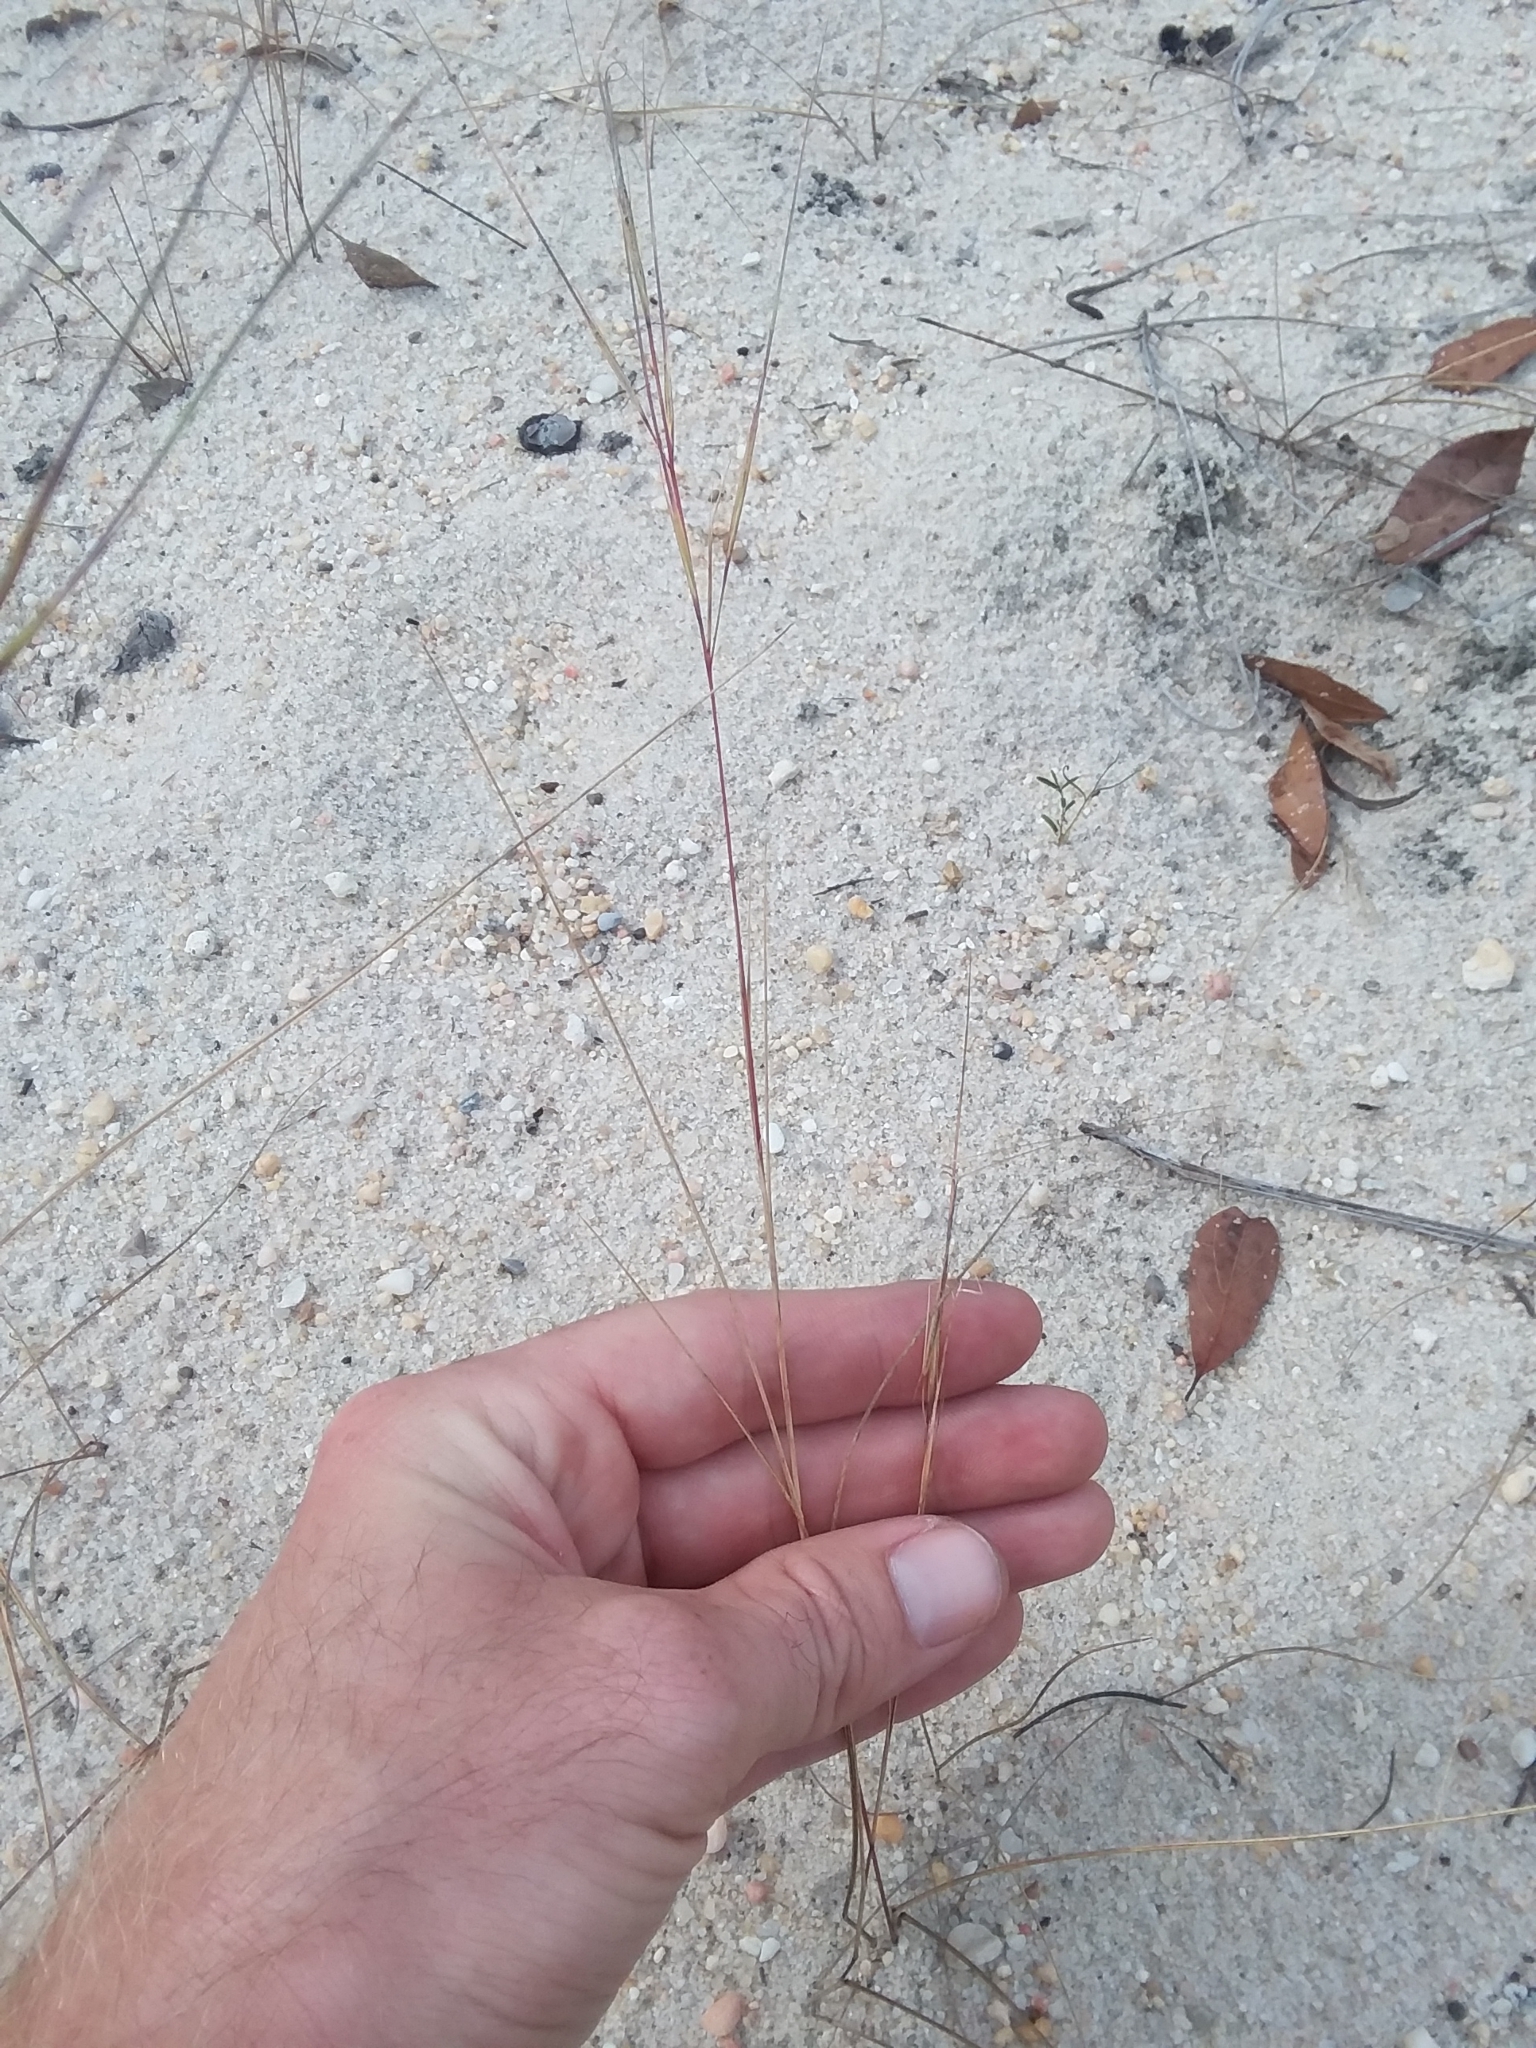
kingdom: Plantae
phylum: Tracheophyta
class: Liliopsida
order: Poales
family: Poaceae
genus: Aristida
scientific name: Aristida tuberculosa
